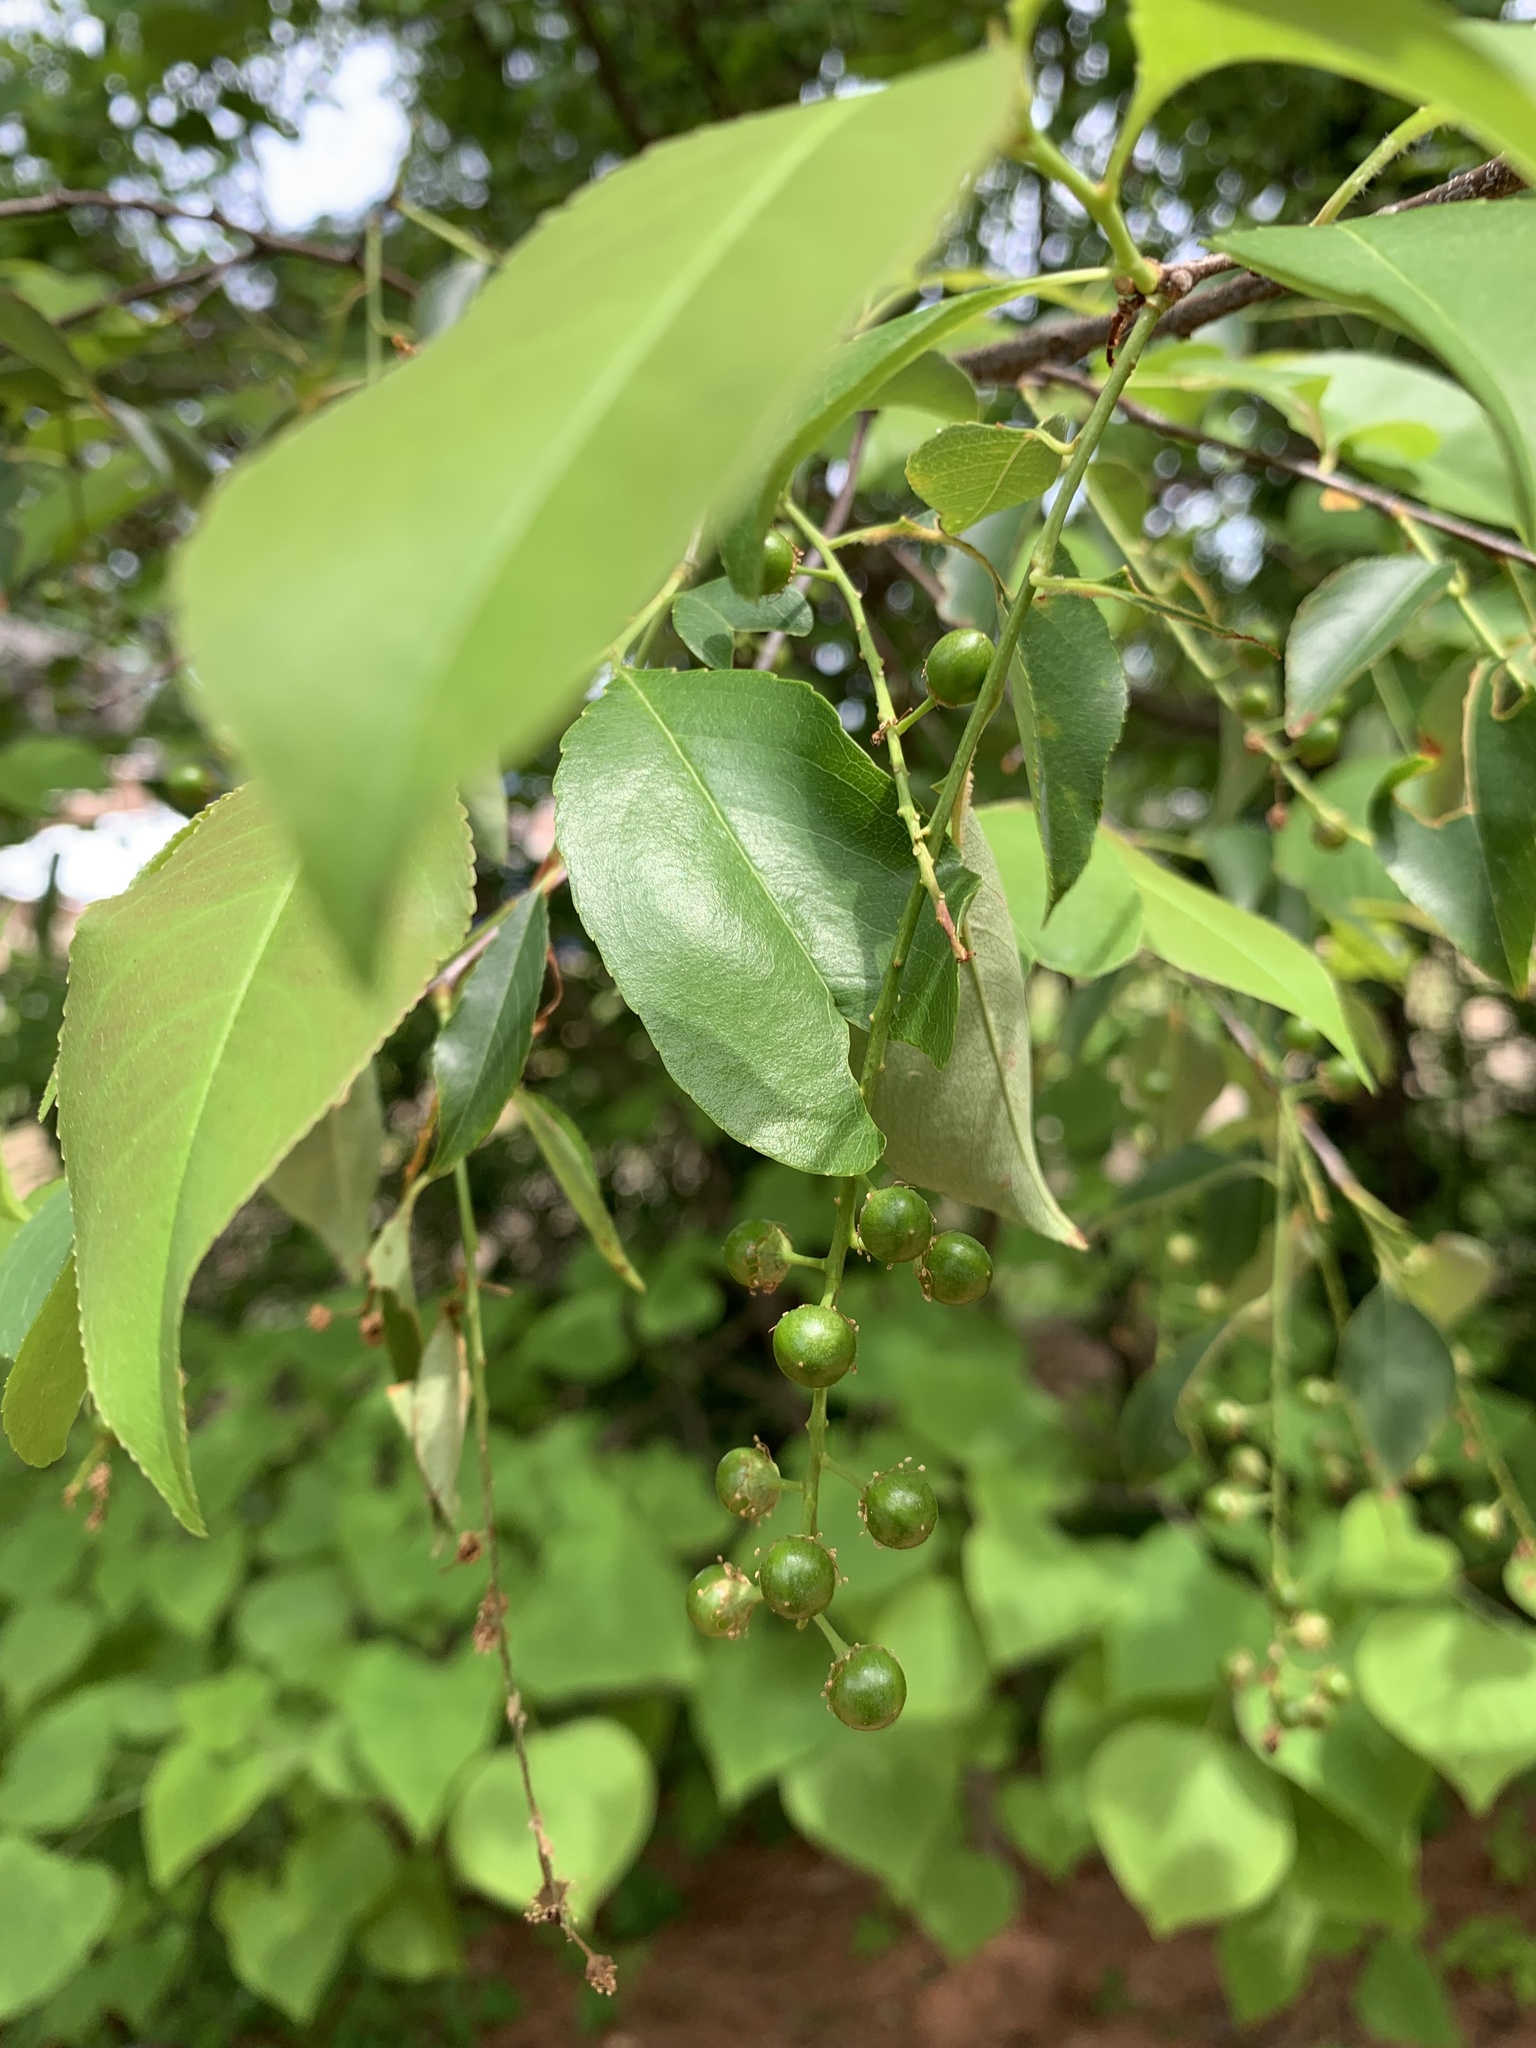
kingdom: Plantae
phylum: Tracheophyta
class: Magnoliopsida
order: Rosales
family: Rosaceae
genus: Prunus
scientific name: Prunus serotina
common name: Black cherry
